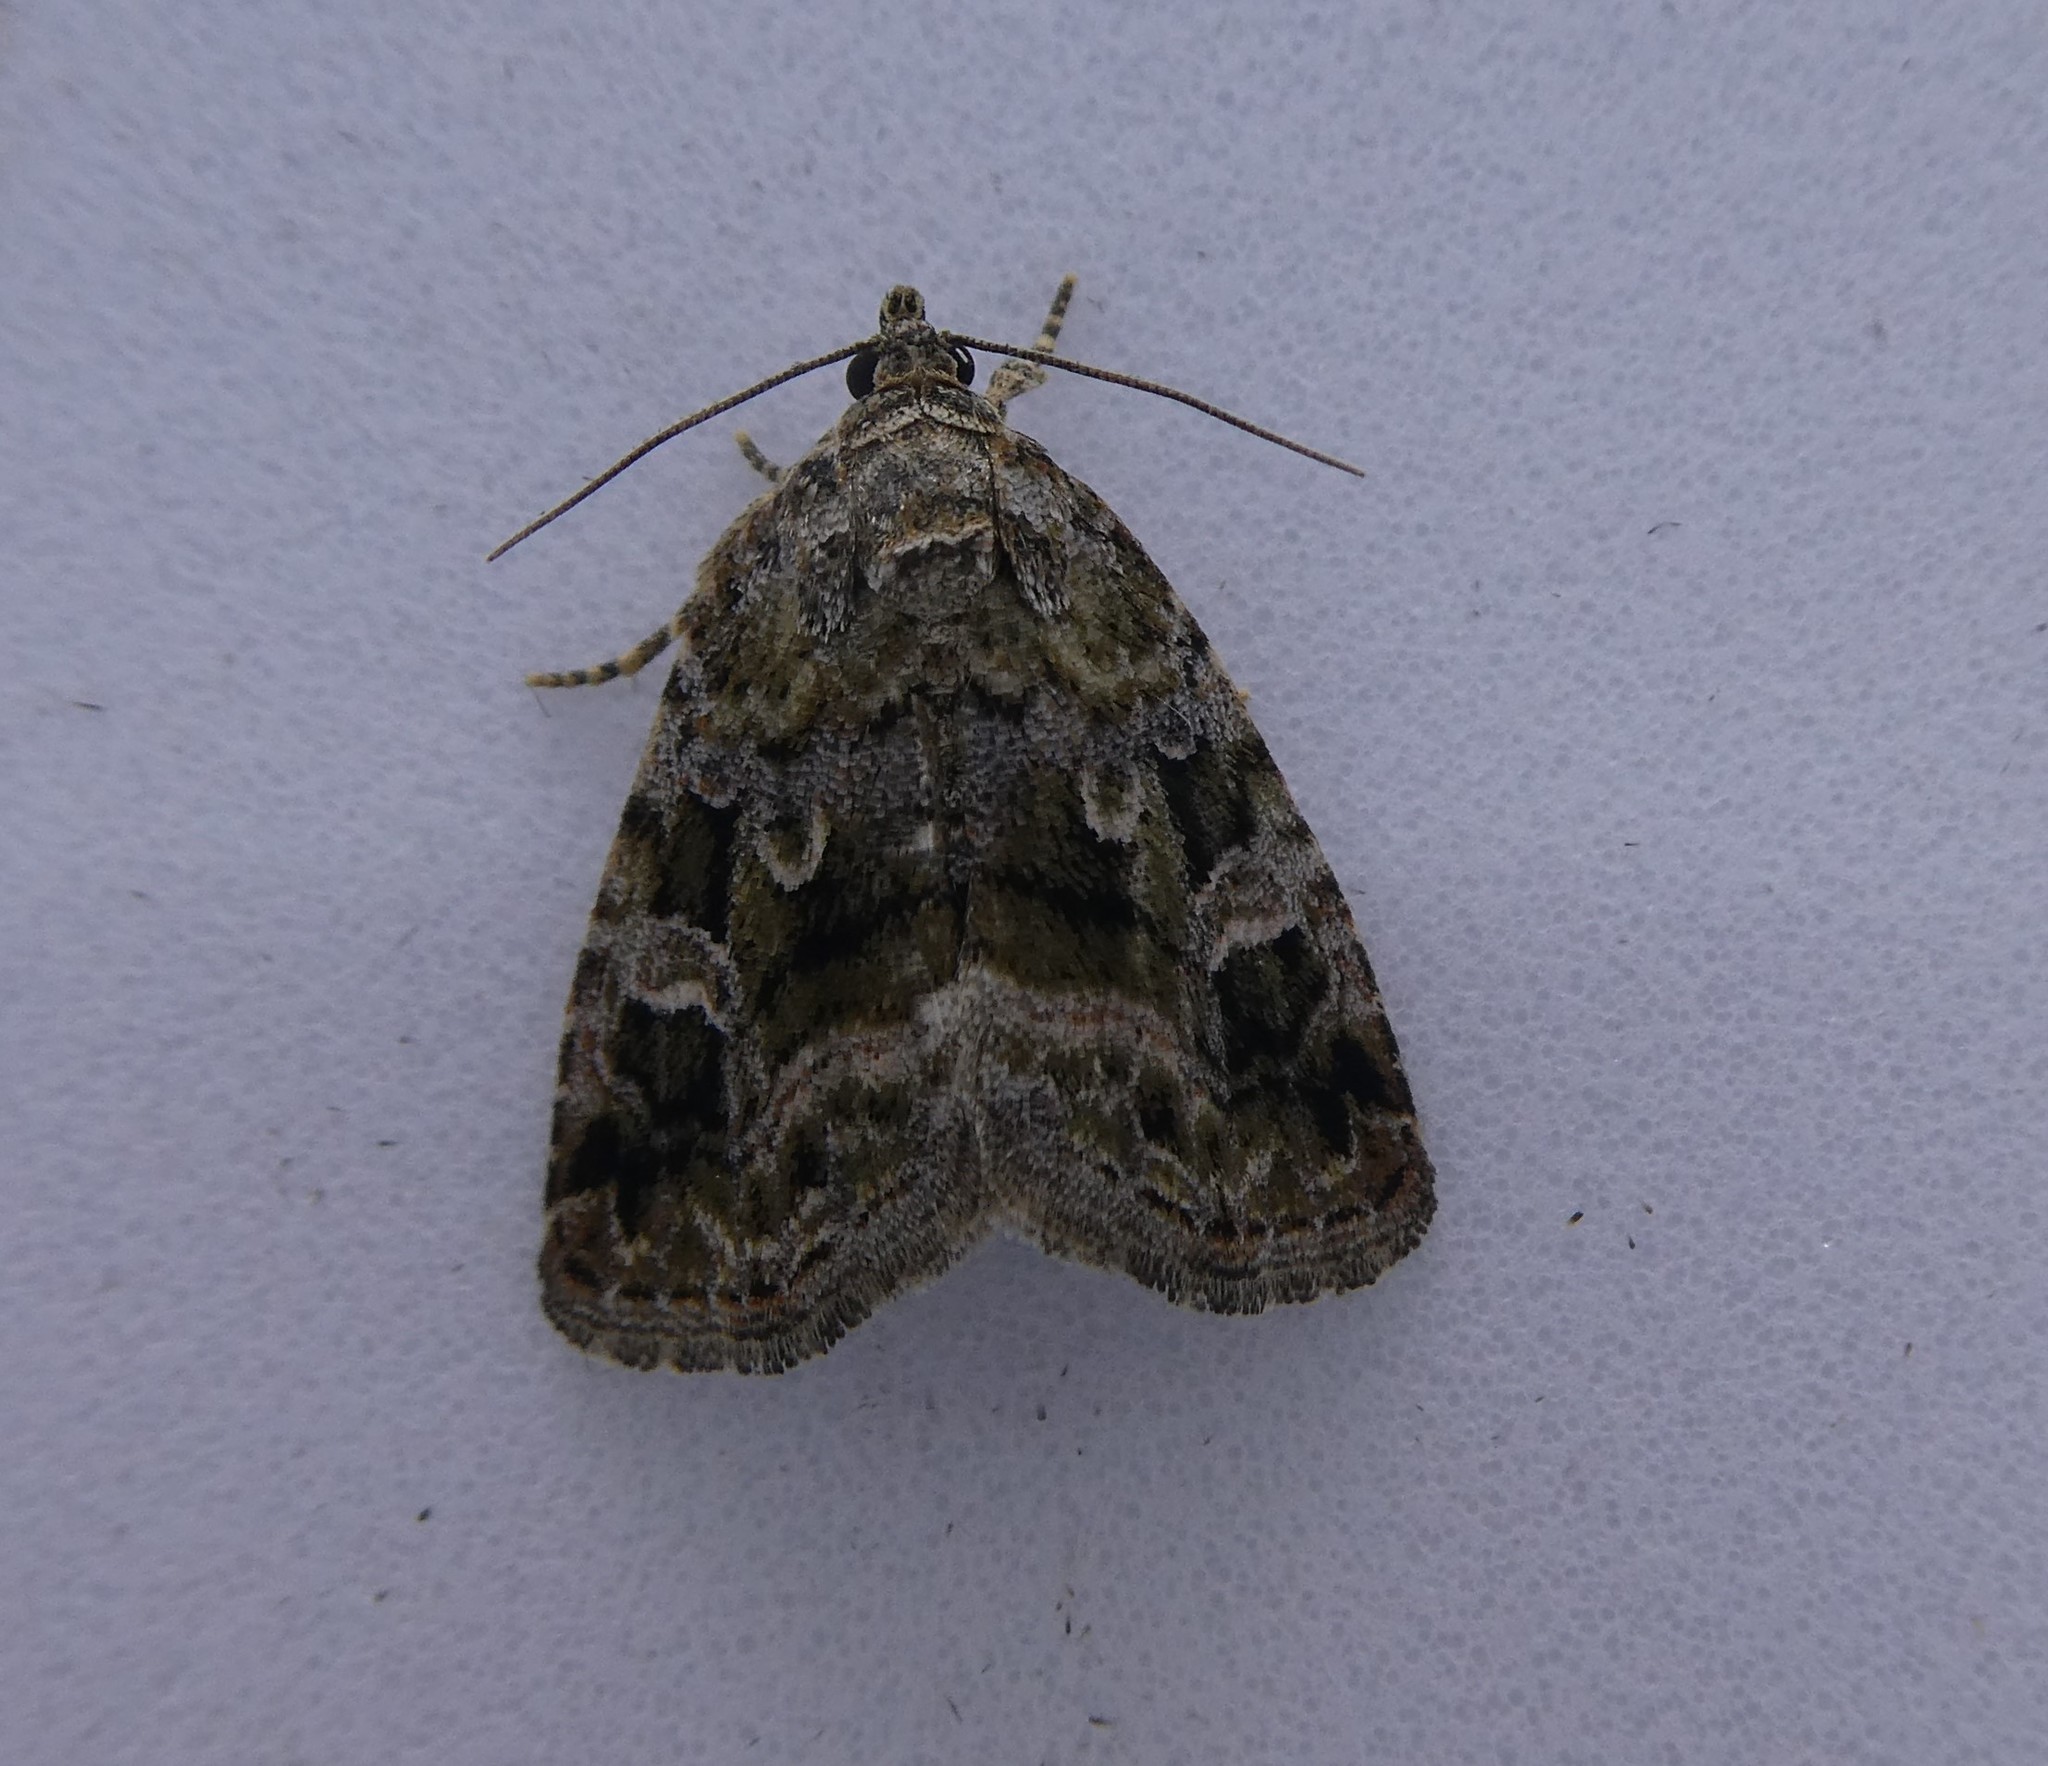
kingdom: Animalia
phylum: Arthropoda
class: Insecta
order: Lepidoptera
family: Noctuidae
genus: Protodeltote
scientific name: Protodeltote muscosula
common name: Large mossy glyph
